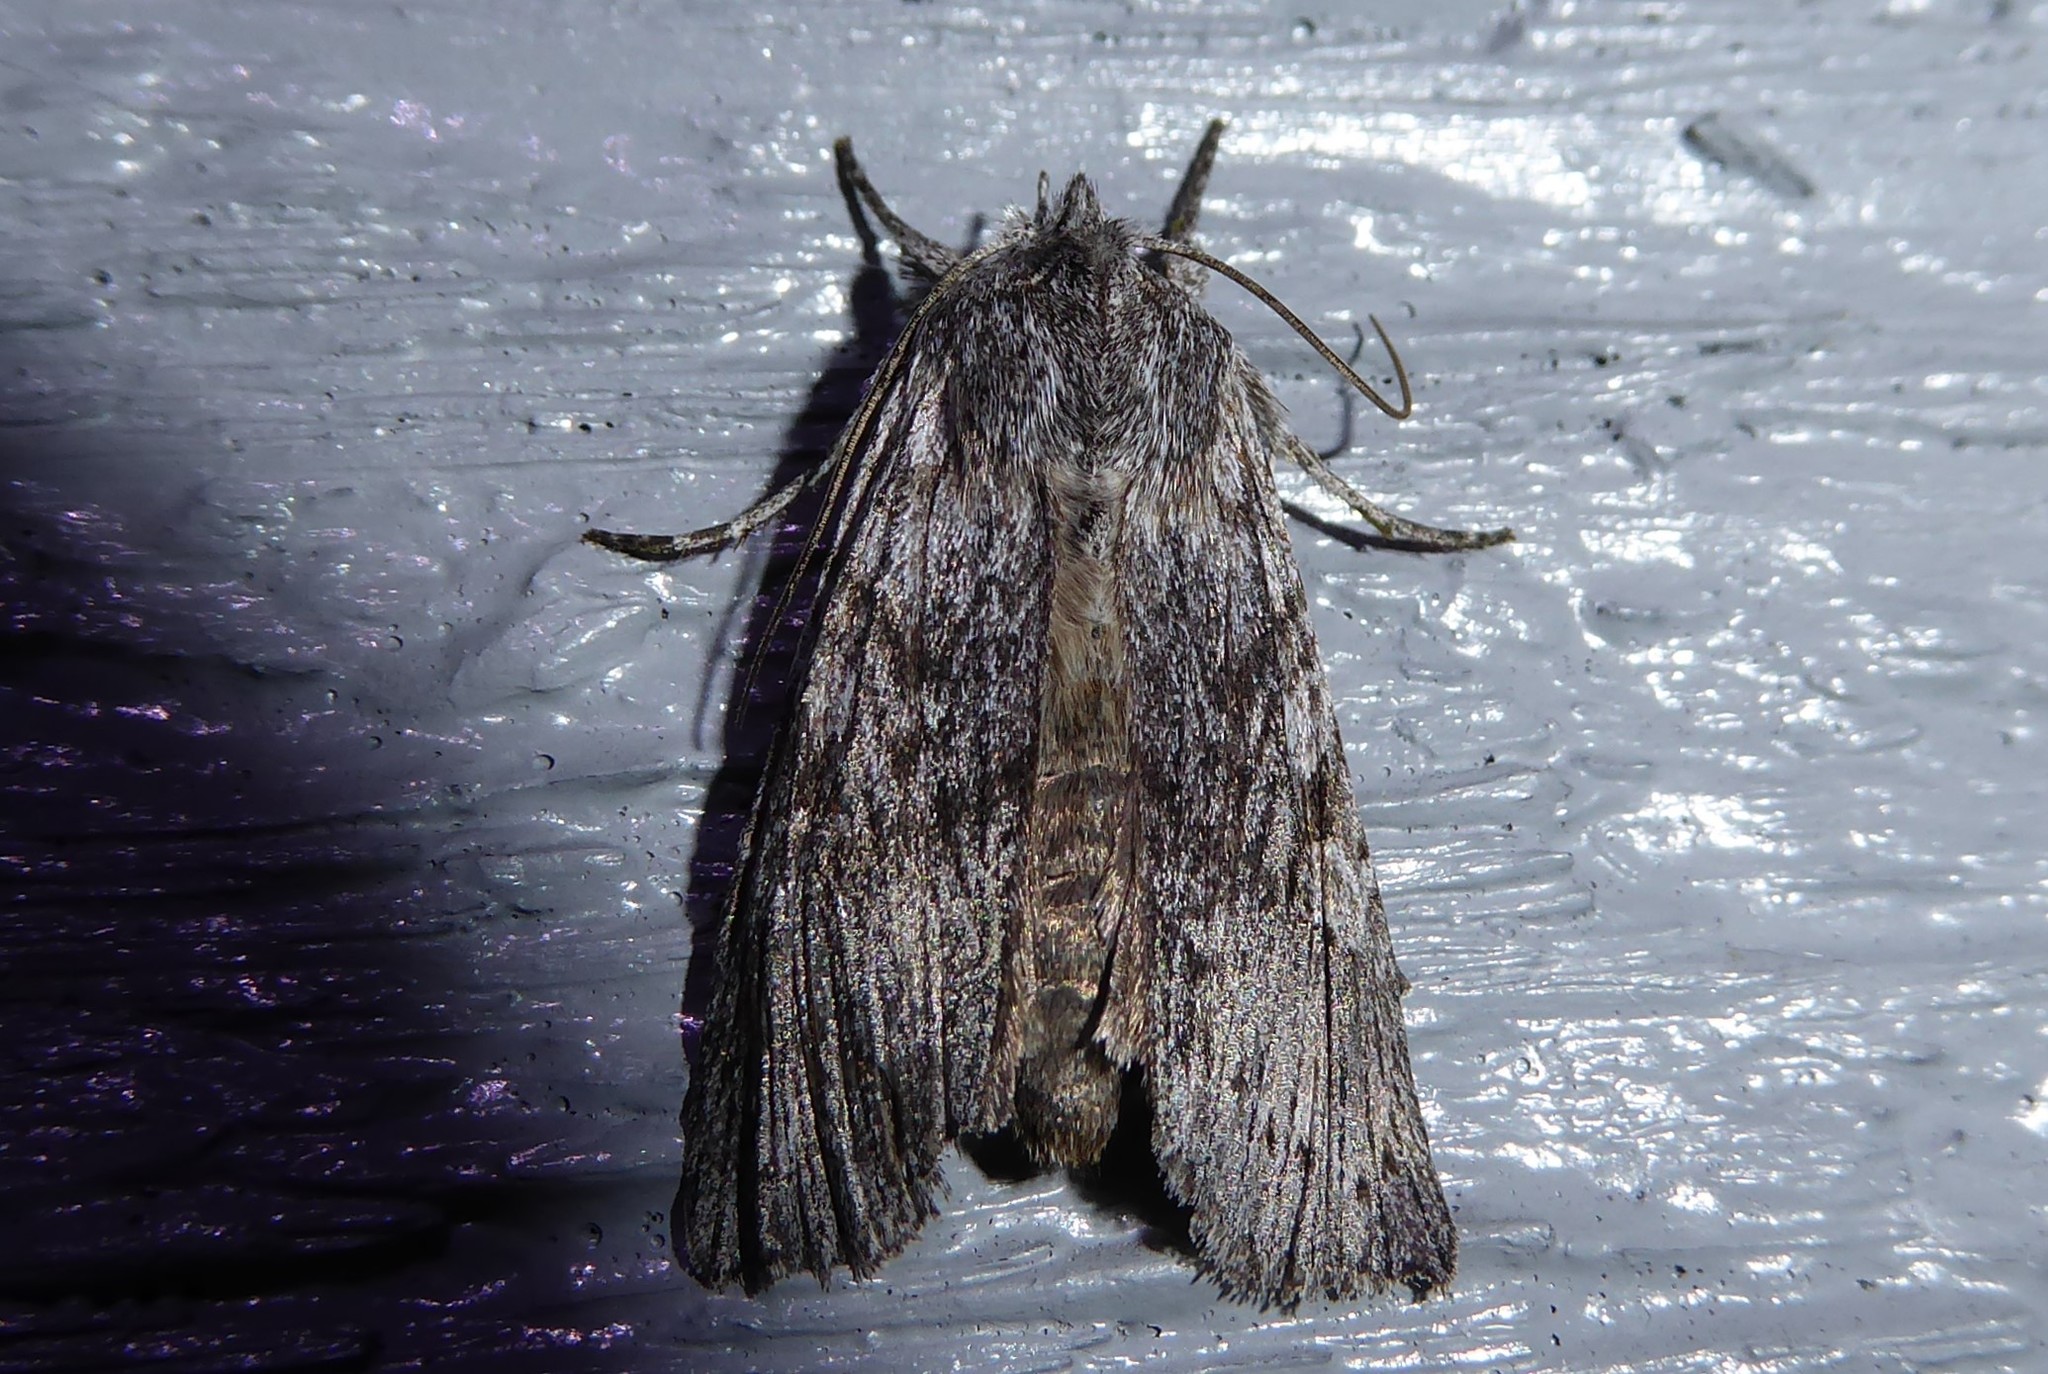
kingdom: Animalia
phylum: Arthropoda
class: Insecta
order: Lepidoptera
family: Noctuidae
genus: Physetica
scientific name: Physetica phricias
